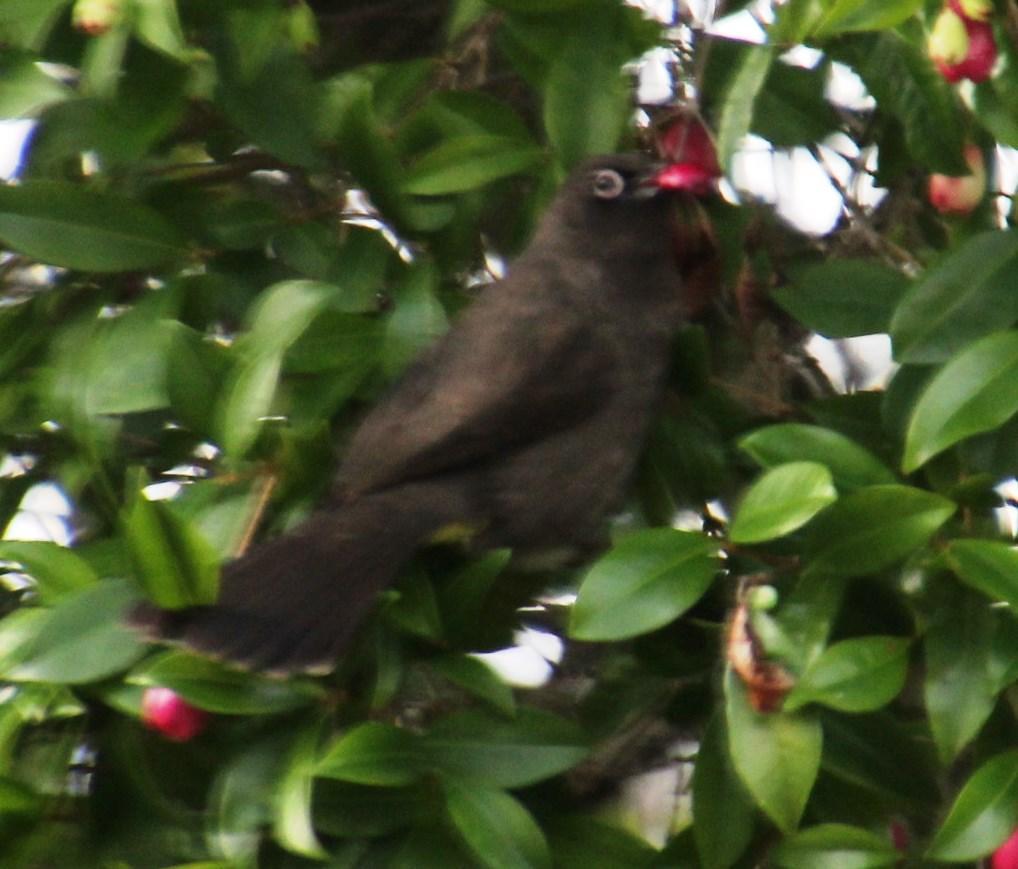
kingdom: Animalia
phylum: Chordata
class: Aves
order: Passeriformes
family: Pycnonotidae
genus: Pycnonotus
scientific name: Pycnonotus capensis
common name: Cape bulbul
